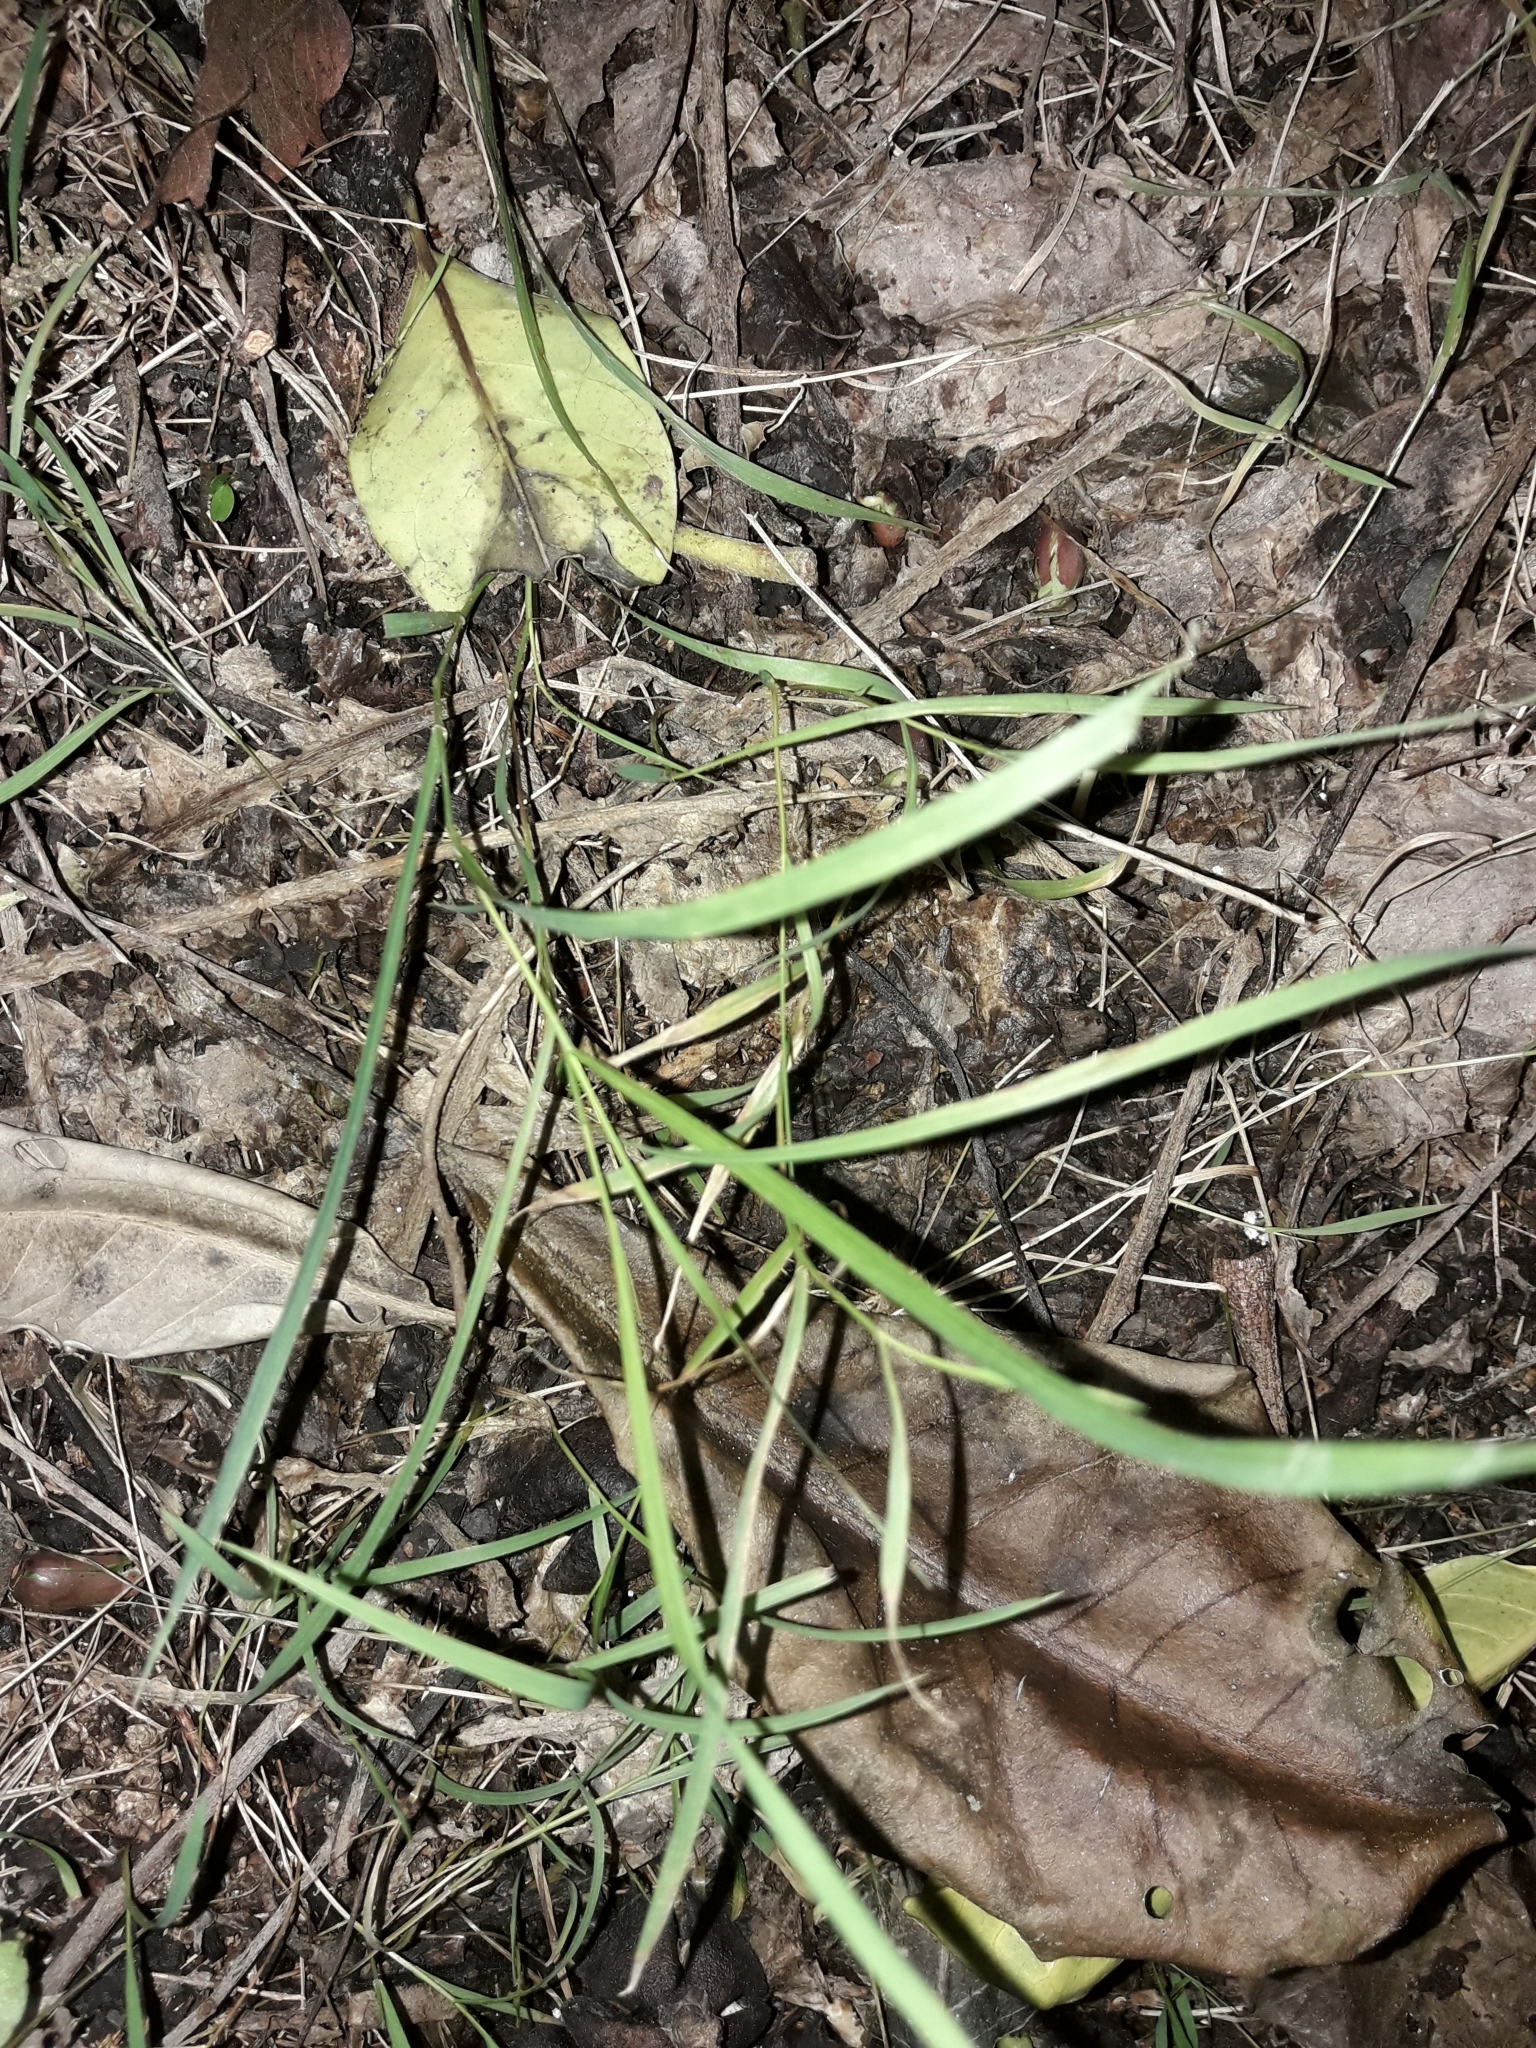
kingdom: Plantae
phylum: Tracheophyta
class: Liliopsida
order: Poales
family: Poaceae
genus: Microlaena
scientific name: Microlaena stipoides
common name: Meadow ricegrass
